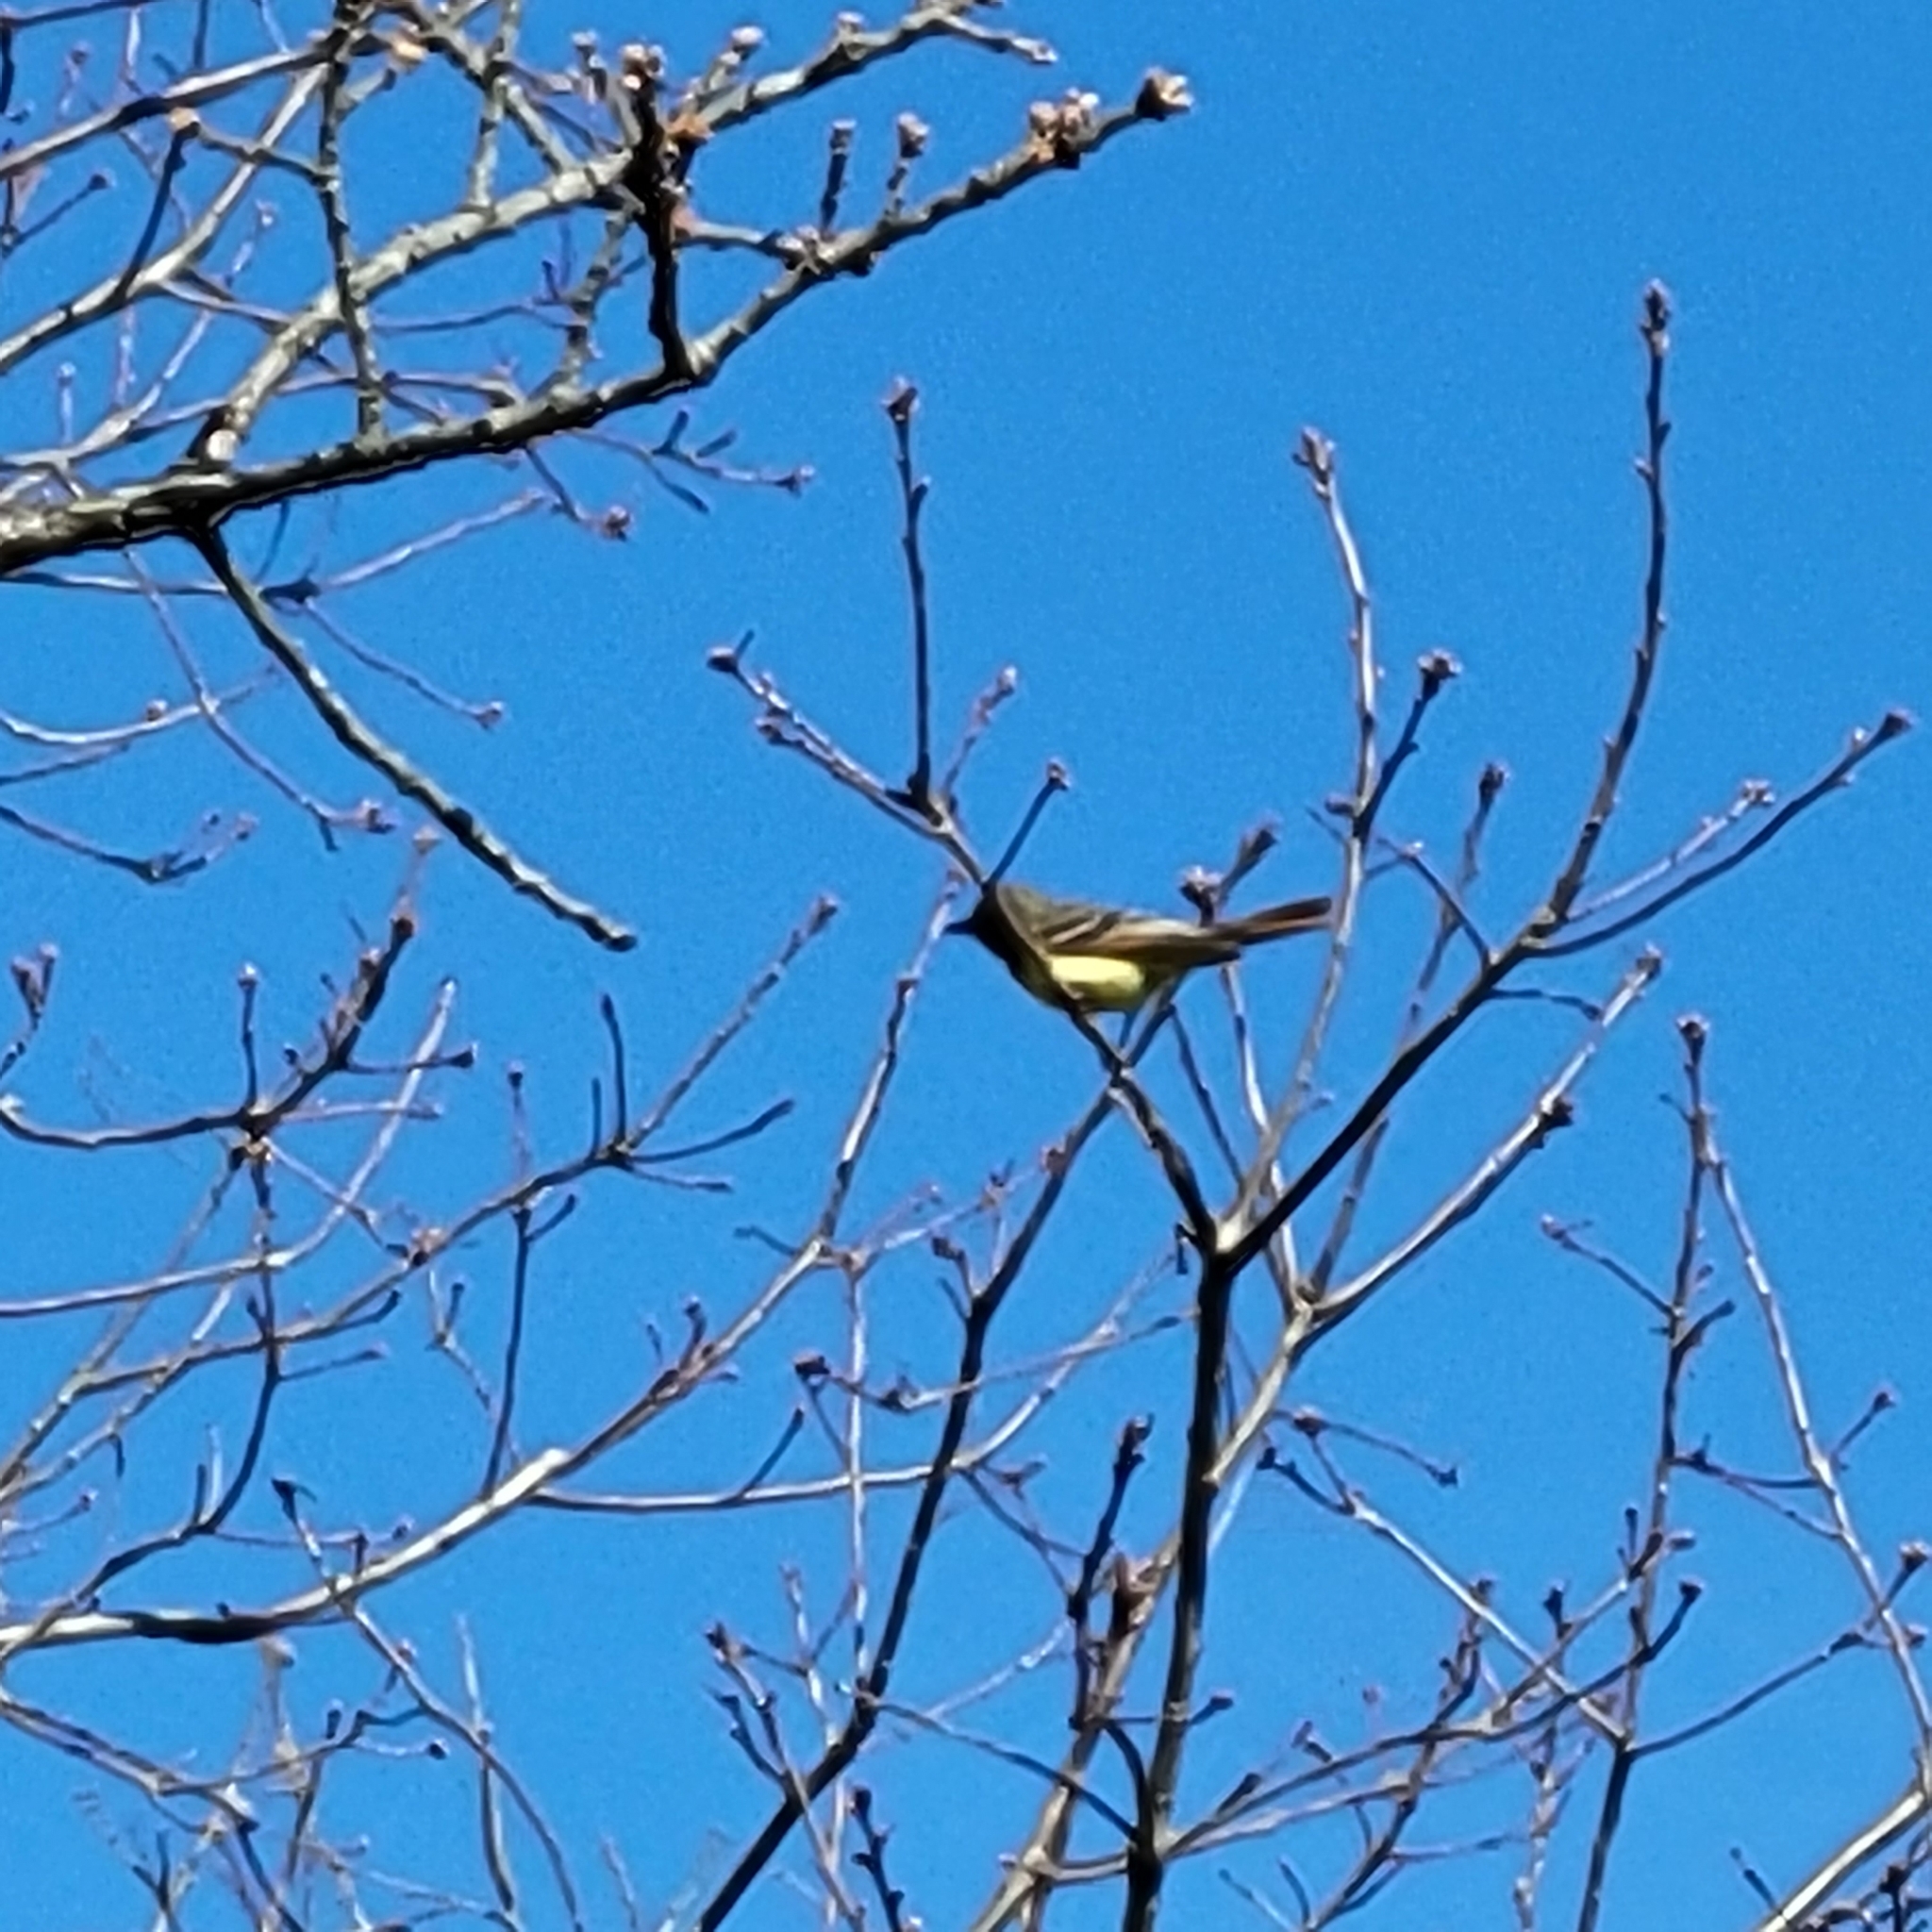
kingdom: Animalia
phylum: Chordata
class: Aves
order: Passeriformes
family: Tyrannidae
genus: Myiarchus
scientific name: Myiarchus crinitus
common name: Great crested flycatcher
